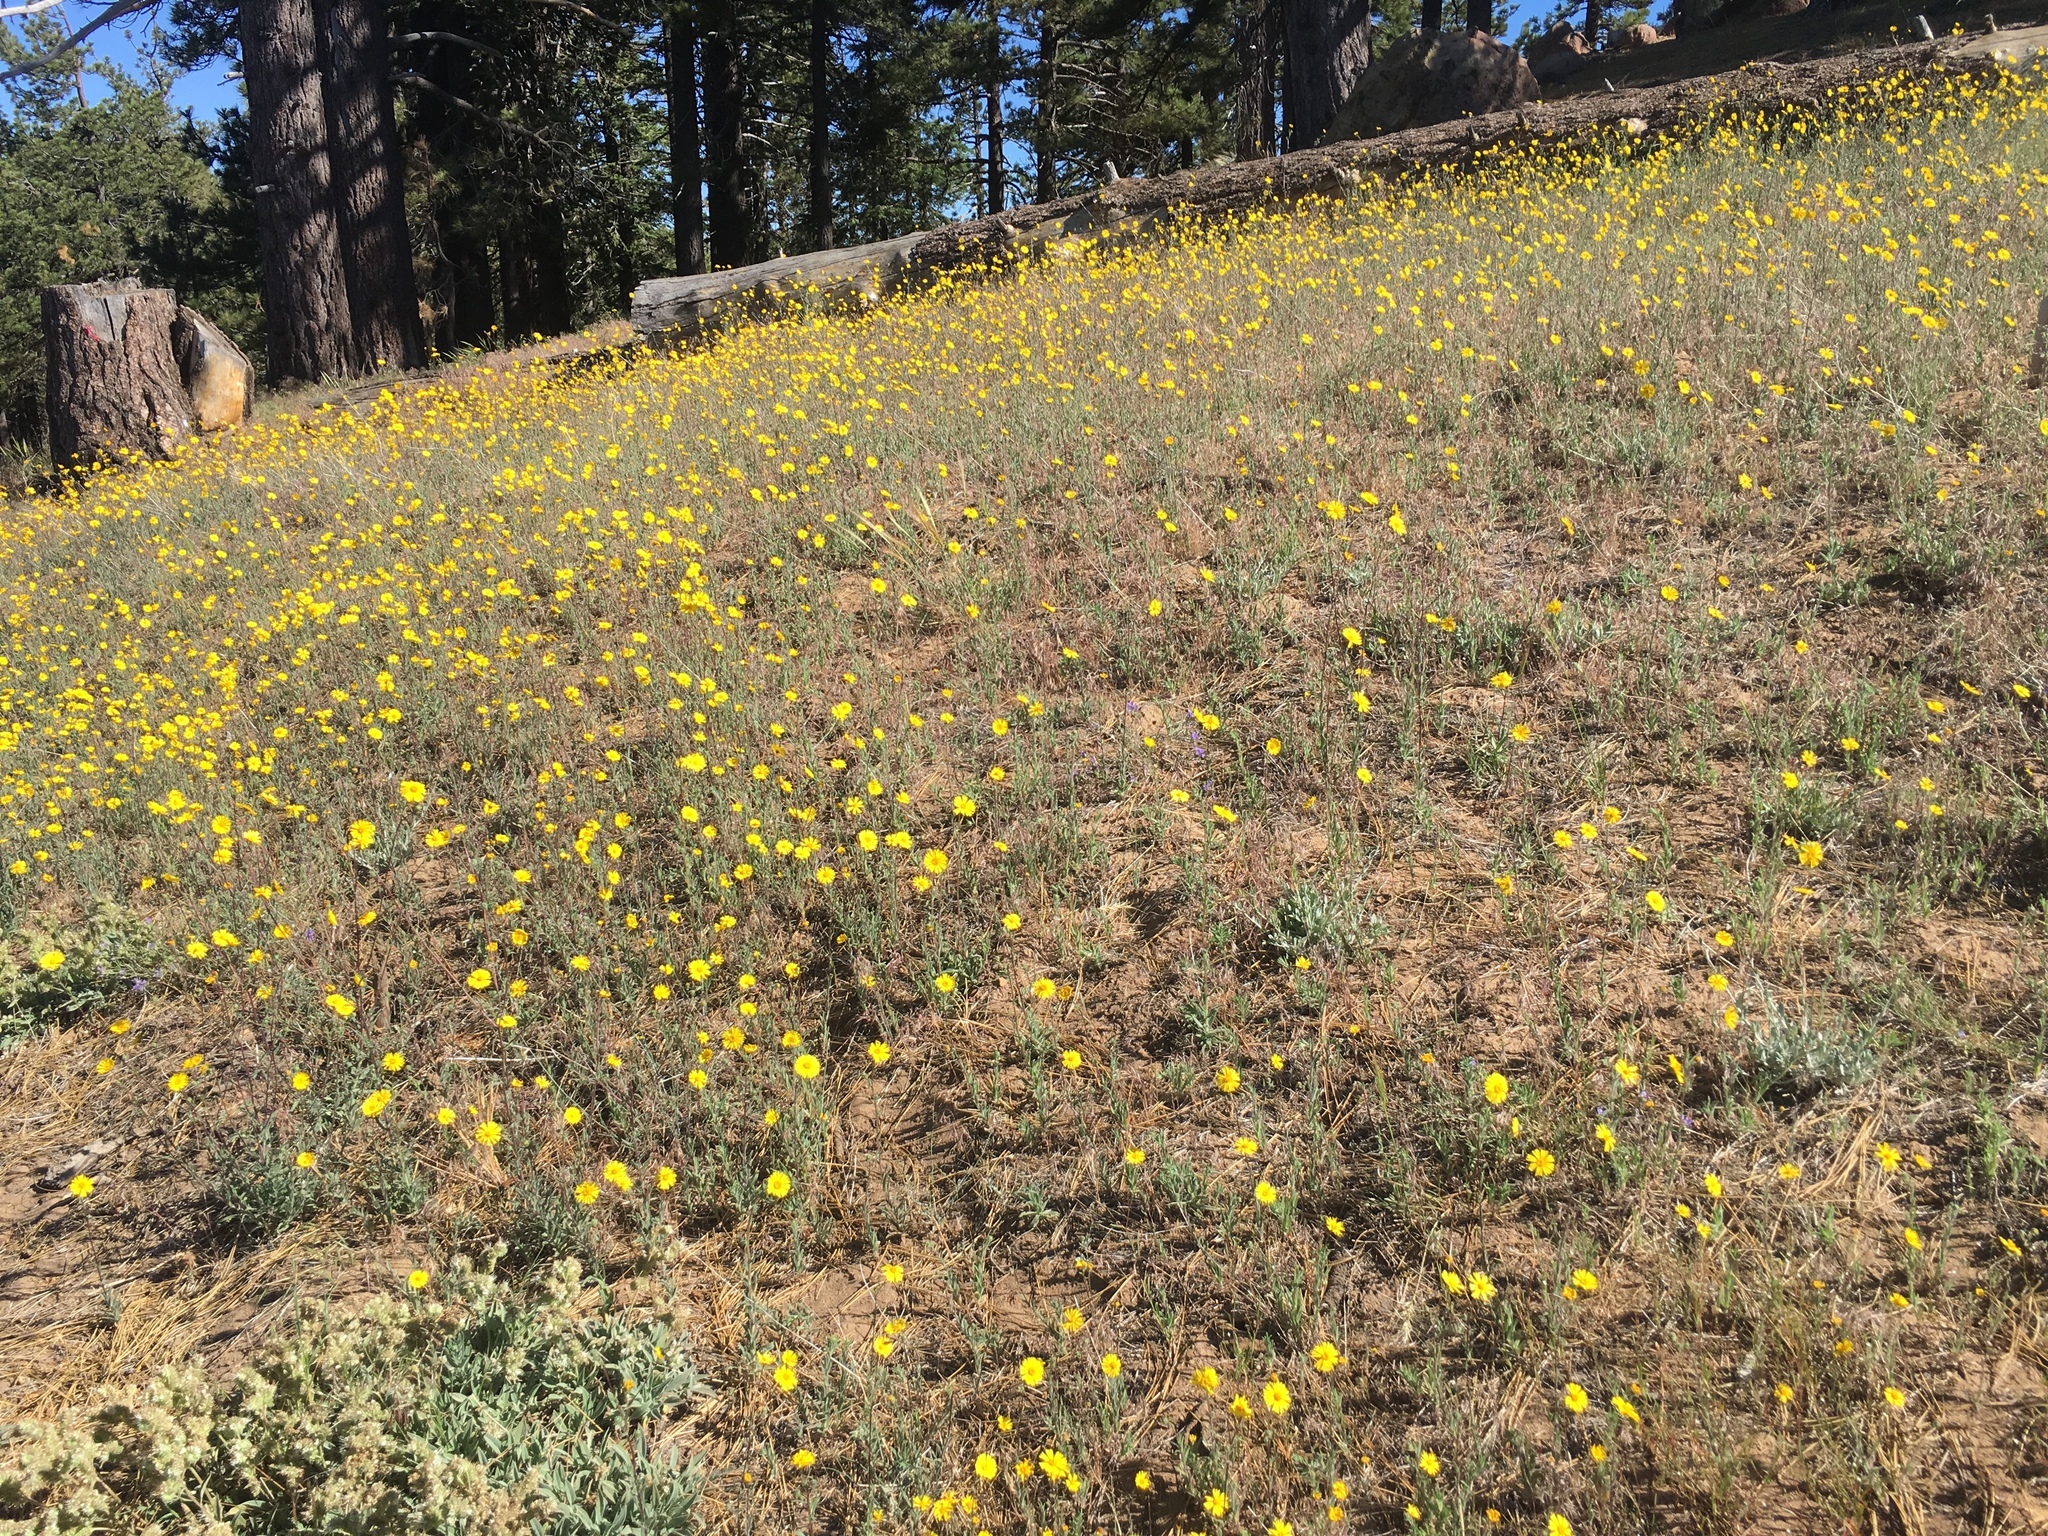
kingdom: Plantae
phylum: Tracheophyta
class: Magnoliopsida
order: Asterales
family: Asteraceae
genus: Madia
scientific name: Madia elegans
